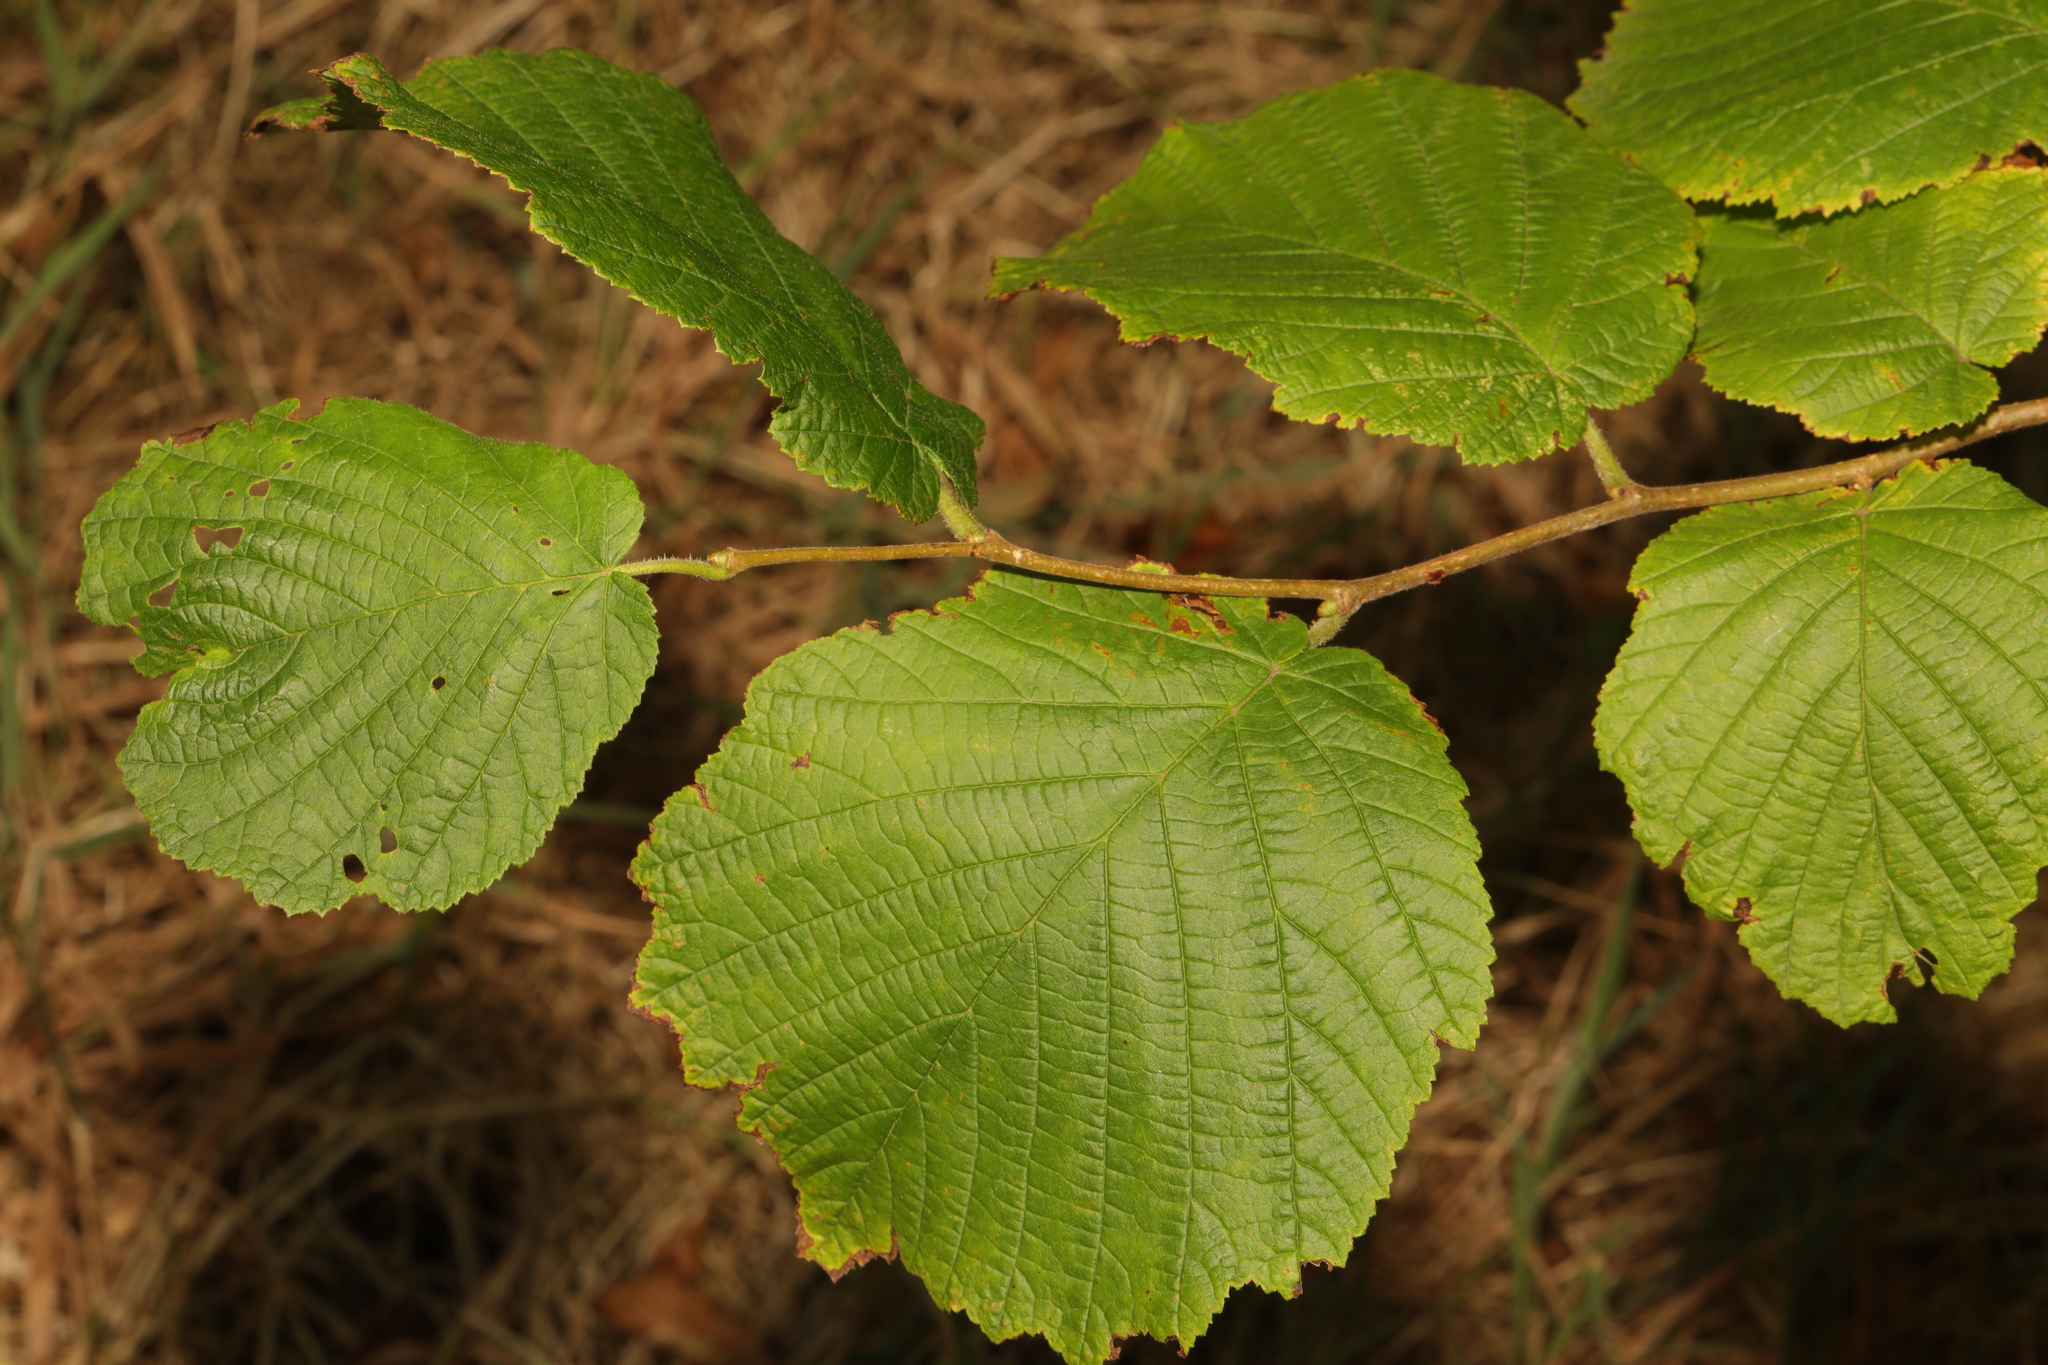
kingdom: Plantae
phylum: Tracheophyta
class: Magnoliopsida
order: Fagales
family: Betulaceae
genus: Corylus
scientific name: Corylus avellana
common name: European hazel
